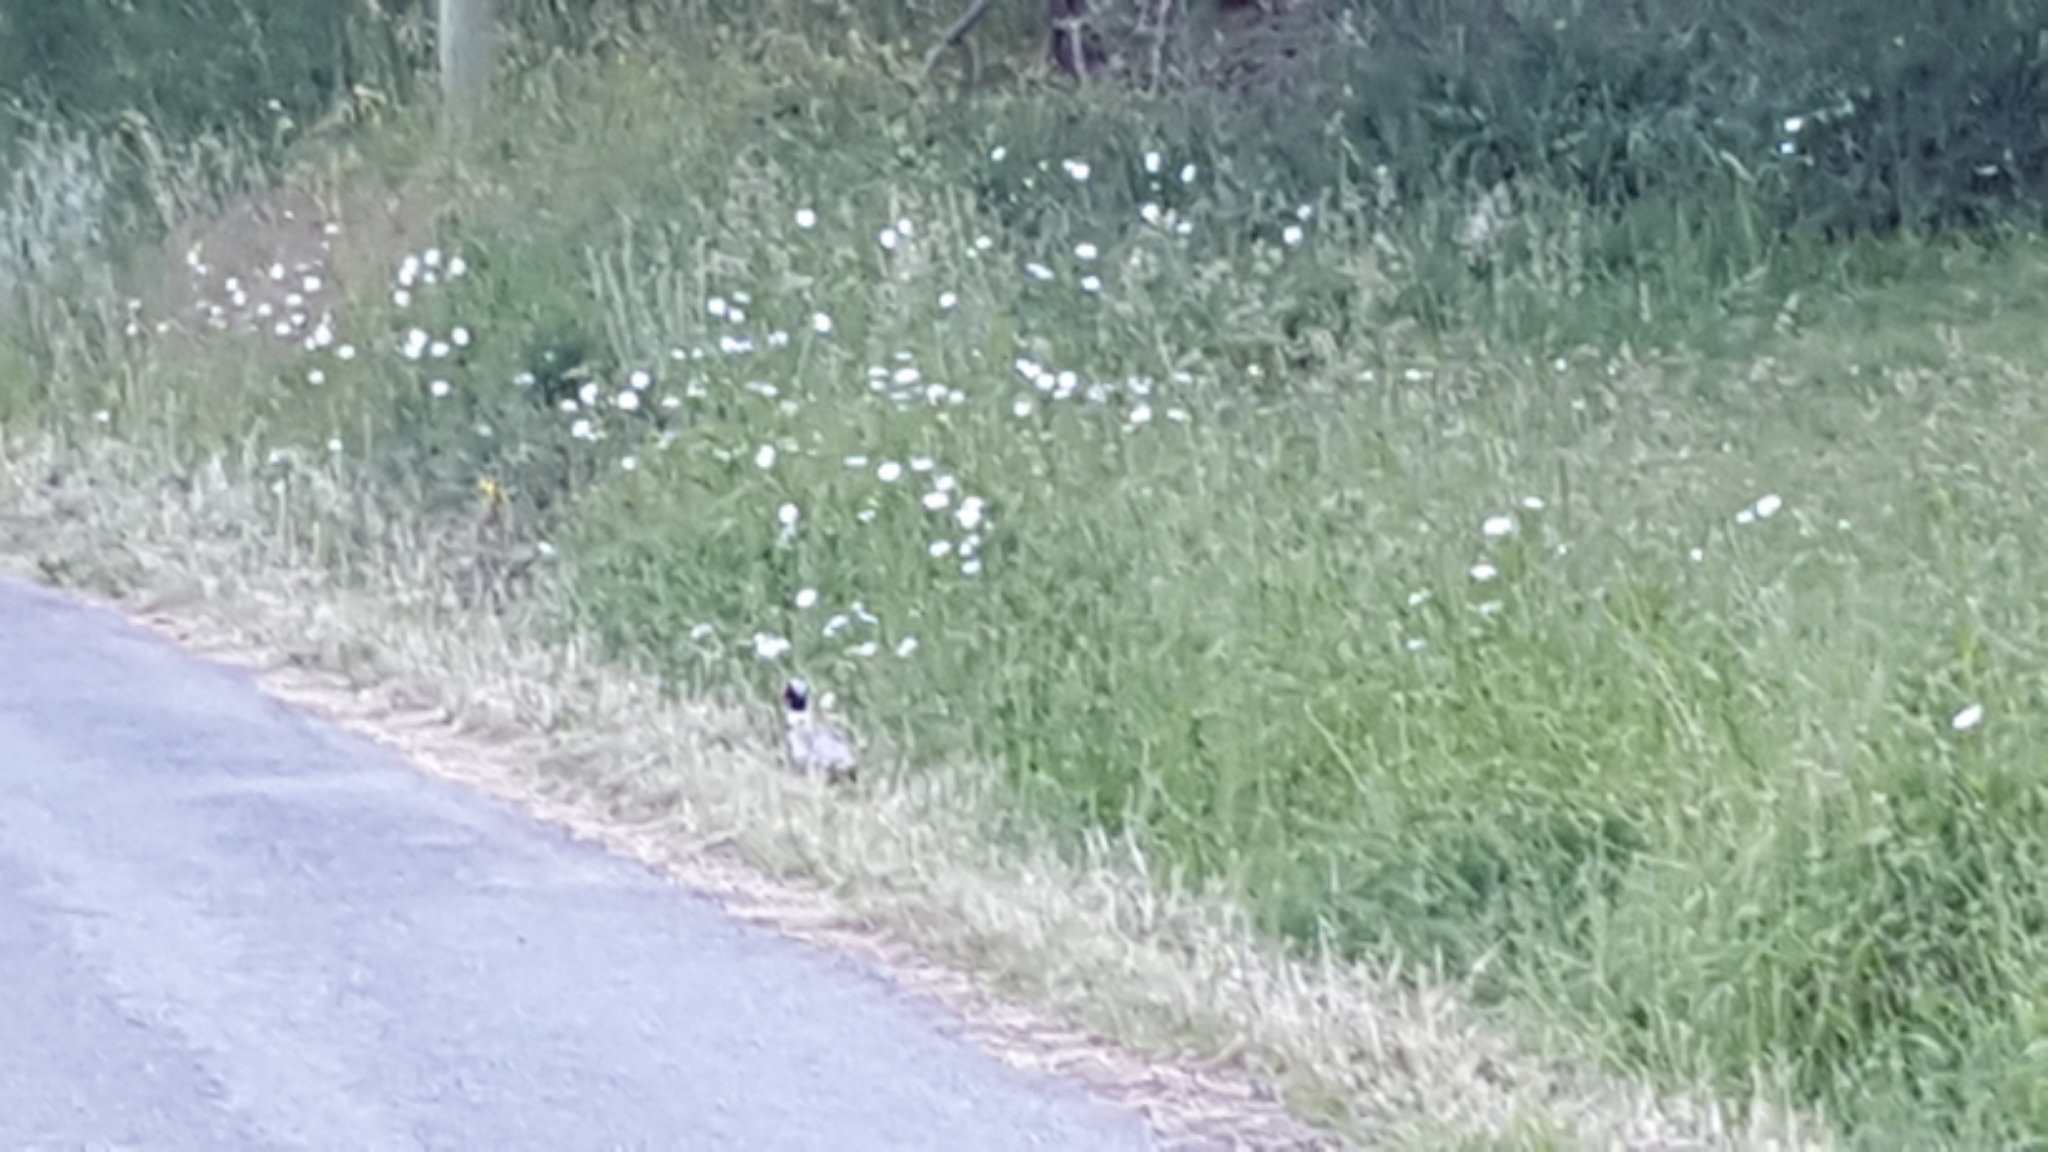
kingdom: Animalia
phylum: Chordata
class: Aves
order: Galliformes
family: Phasianidae
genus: Phasianus
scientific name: Phasianus colchicus
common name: Common pheasant
